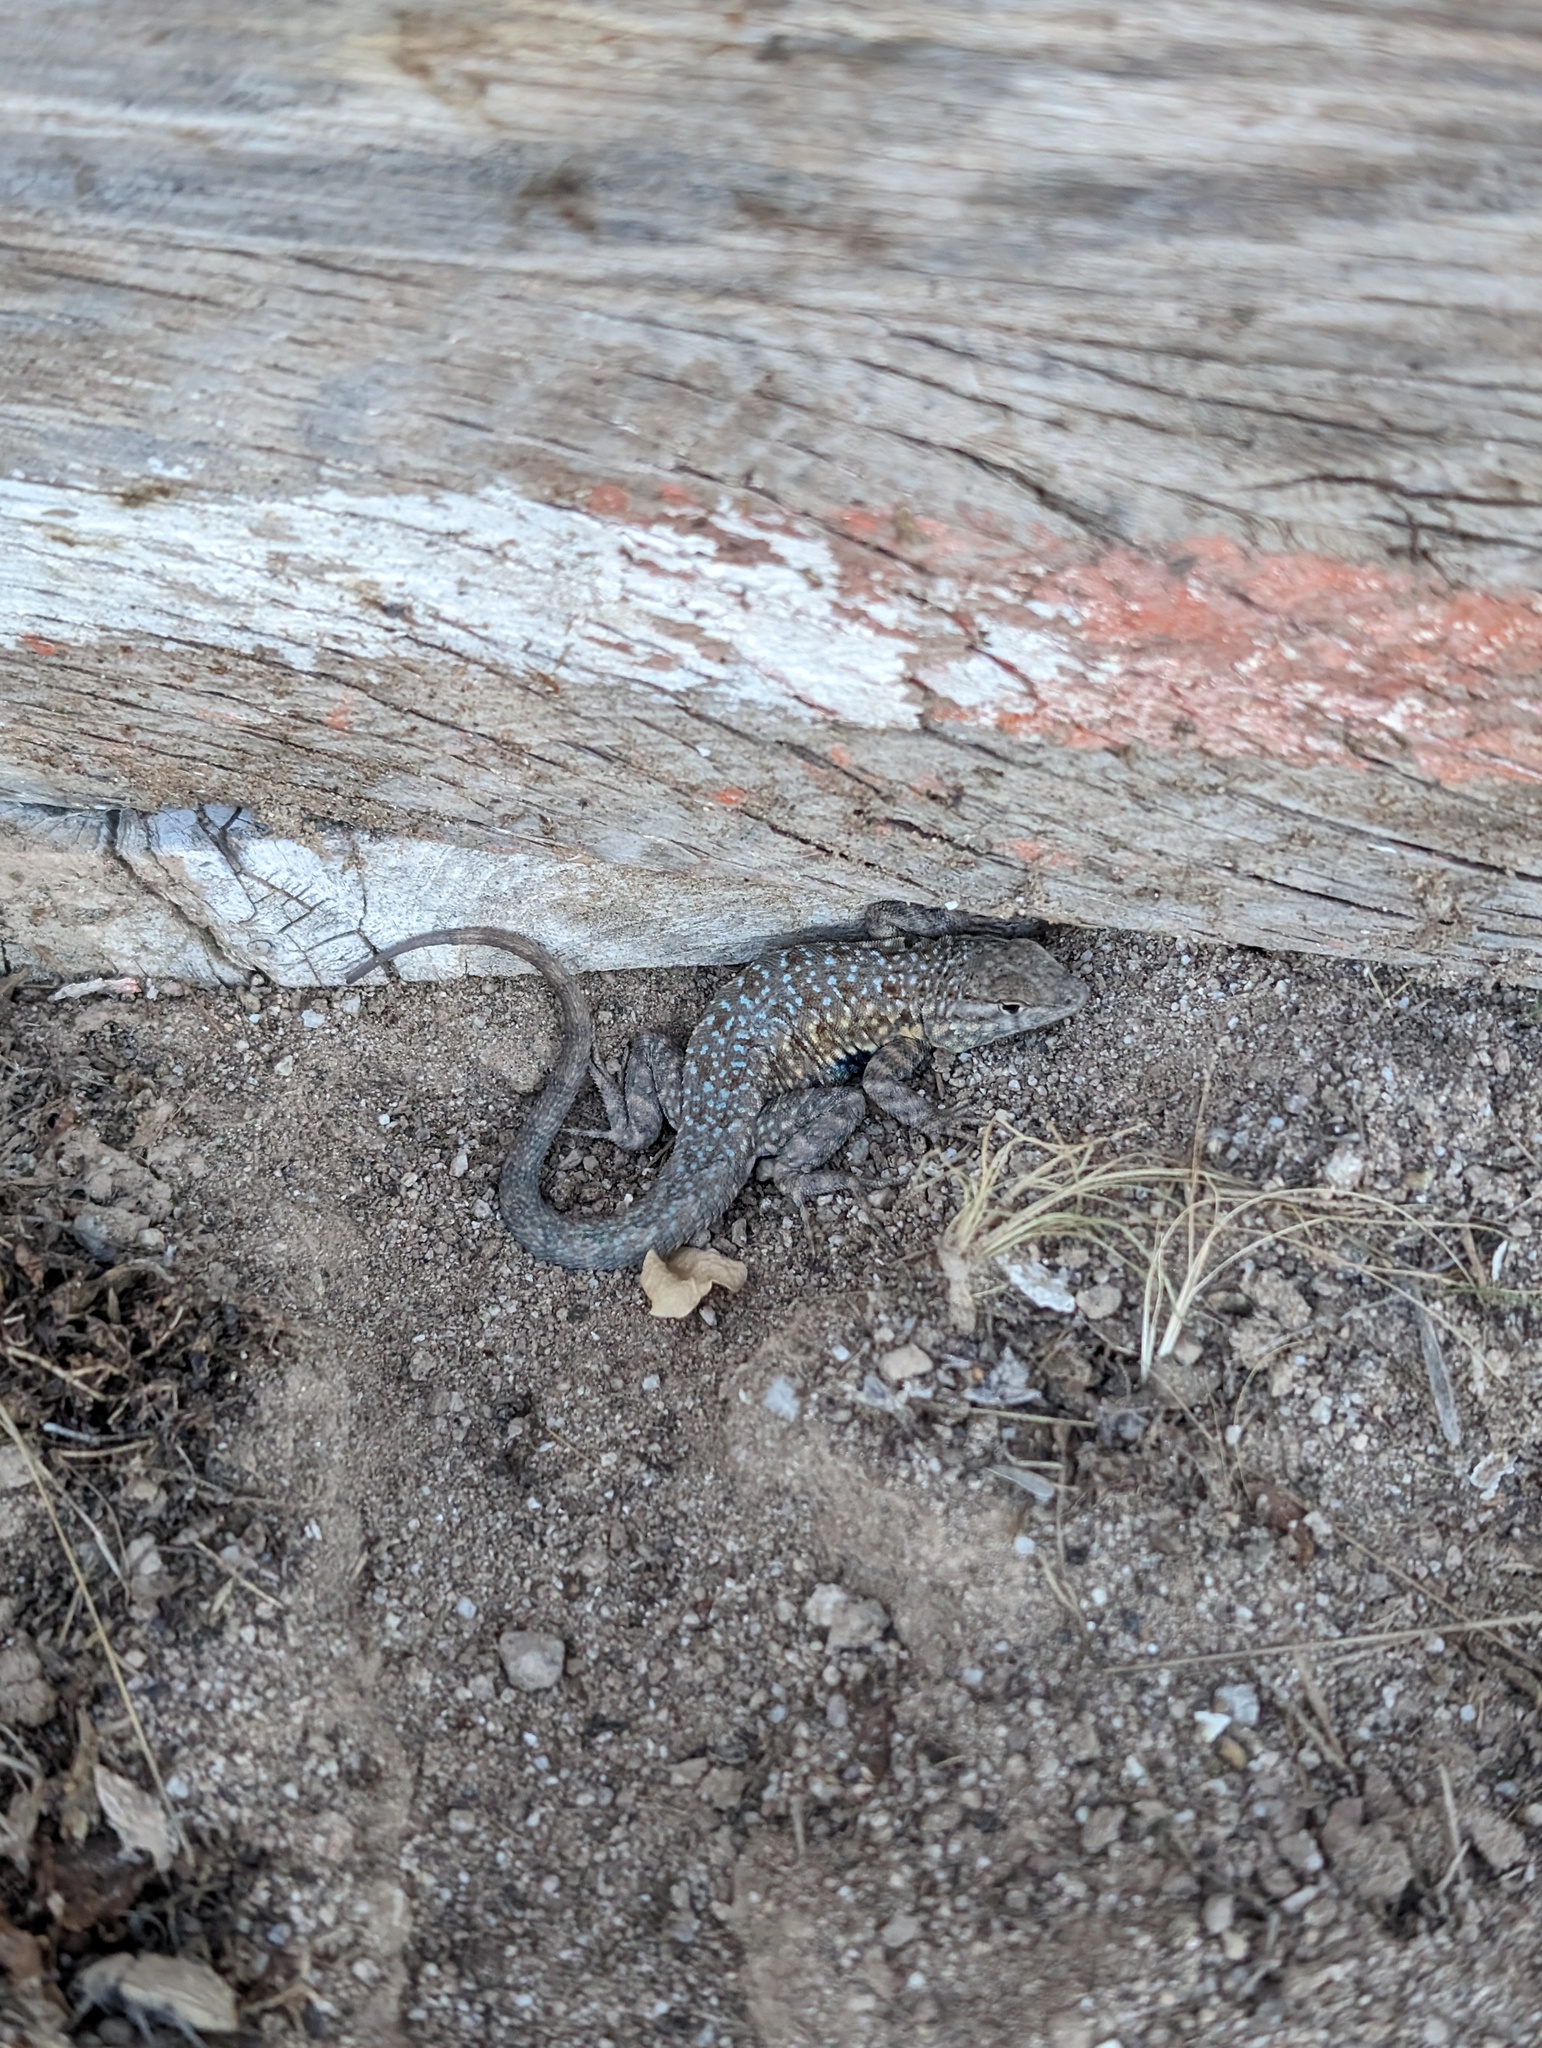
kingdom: Animalia
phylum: Chordata
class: Squamata
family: Phrynosomatidae
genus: Uta
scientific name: Uta stansburiana
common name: Side-blotched lizard
